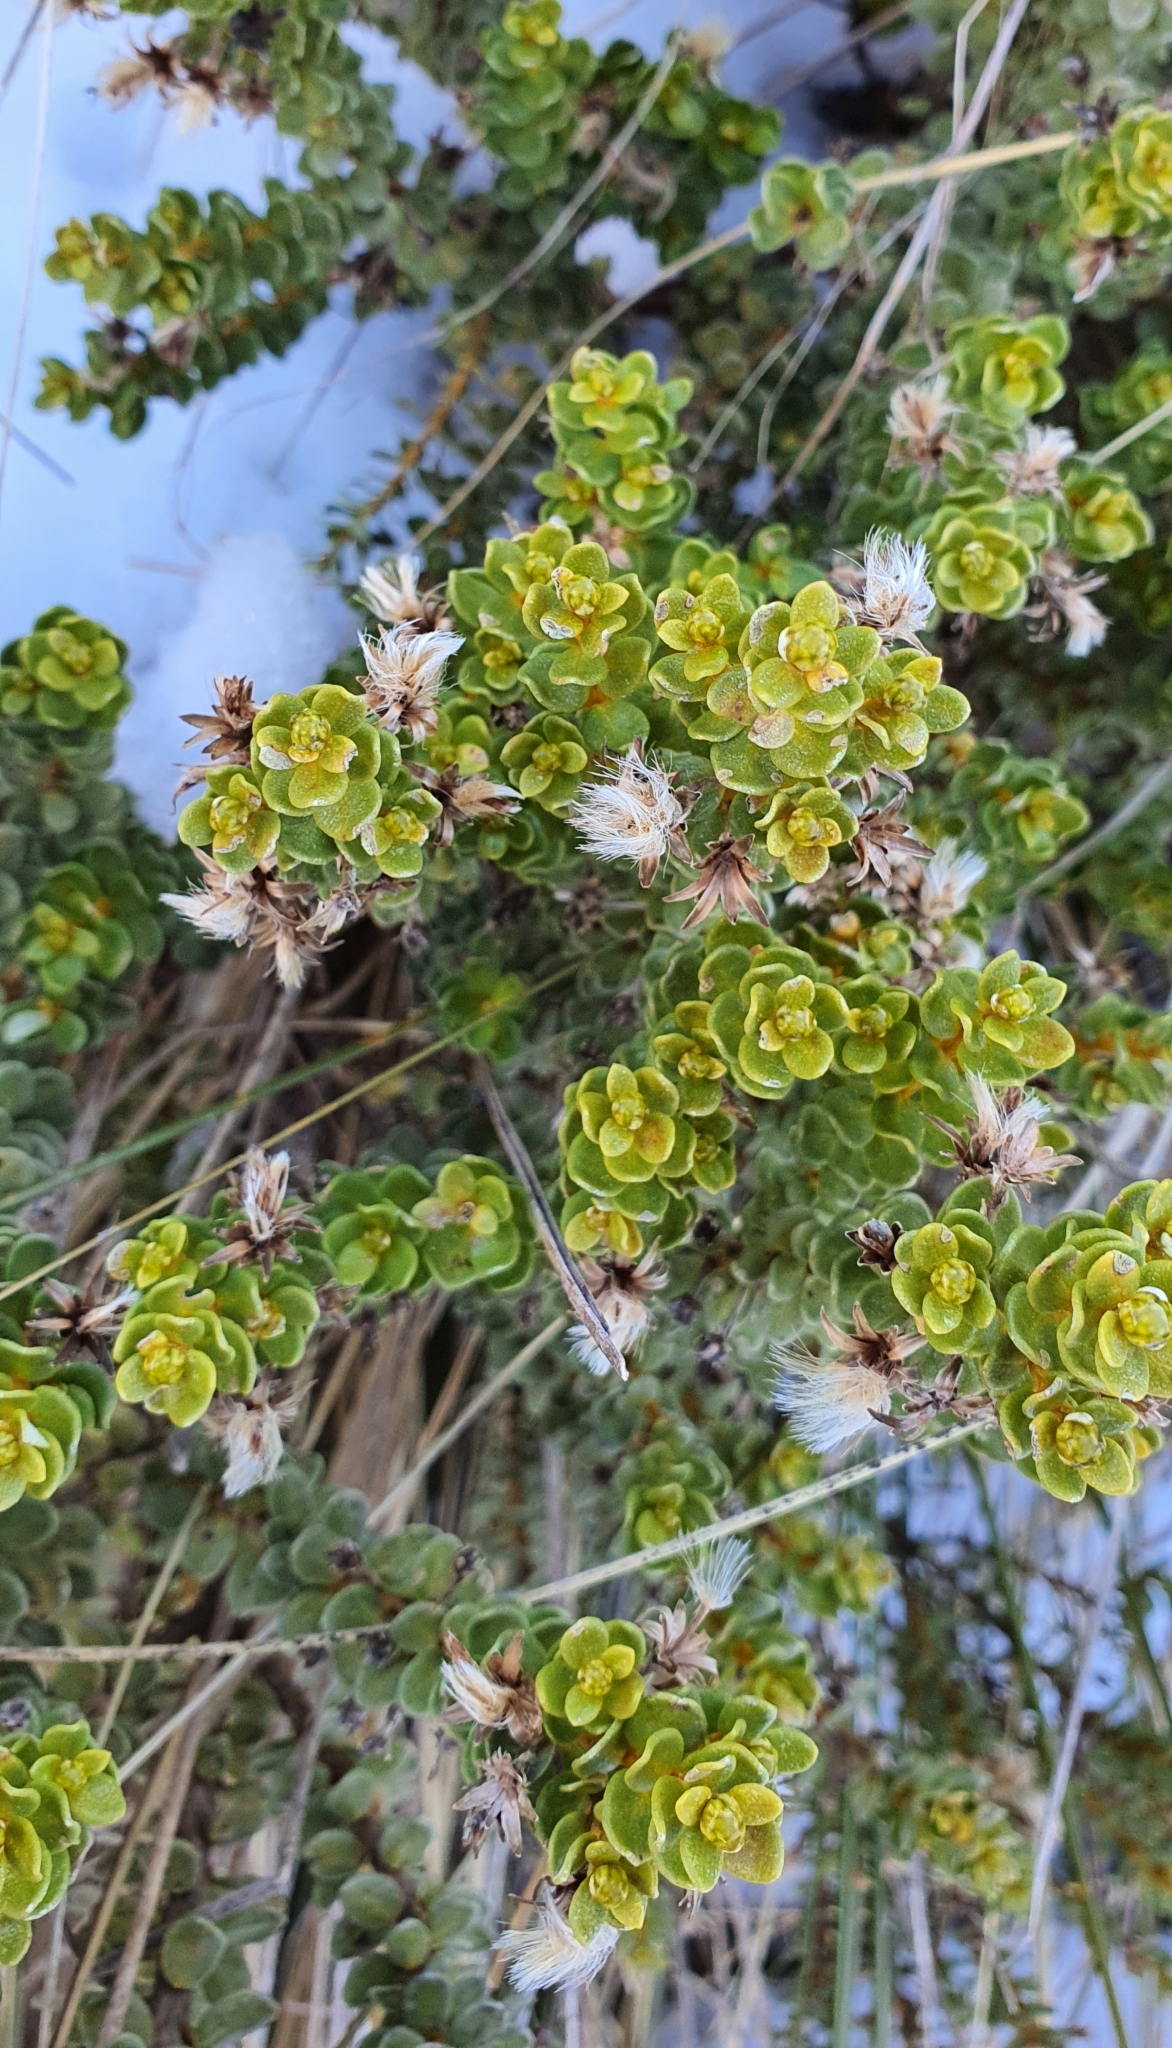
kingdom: Plantae
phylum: Tracheophyta
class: Magnoliopsida
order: Asterales
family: Asteraceae
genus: Olearia
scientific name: Olearia nummularifolia
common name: Sticky daisybush
